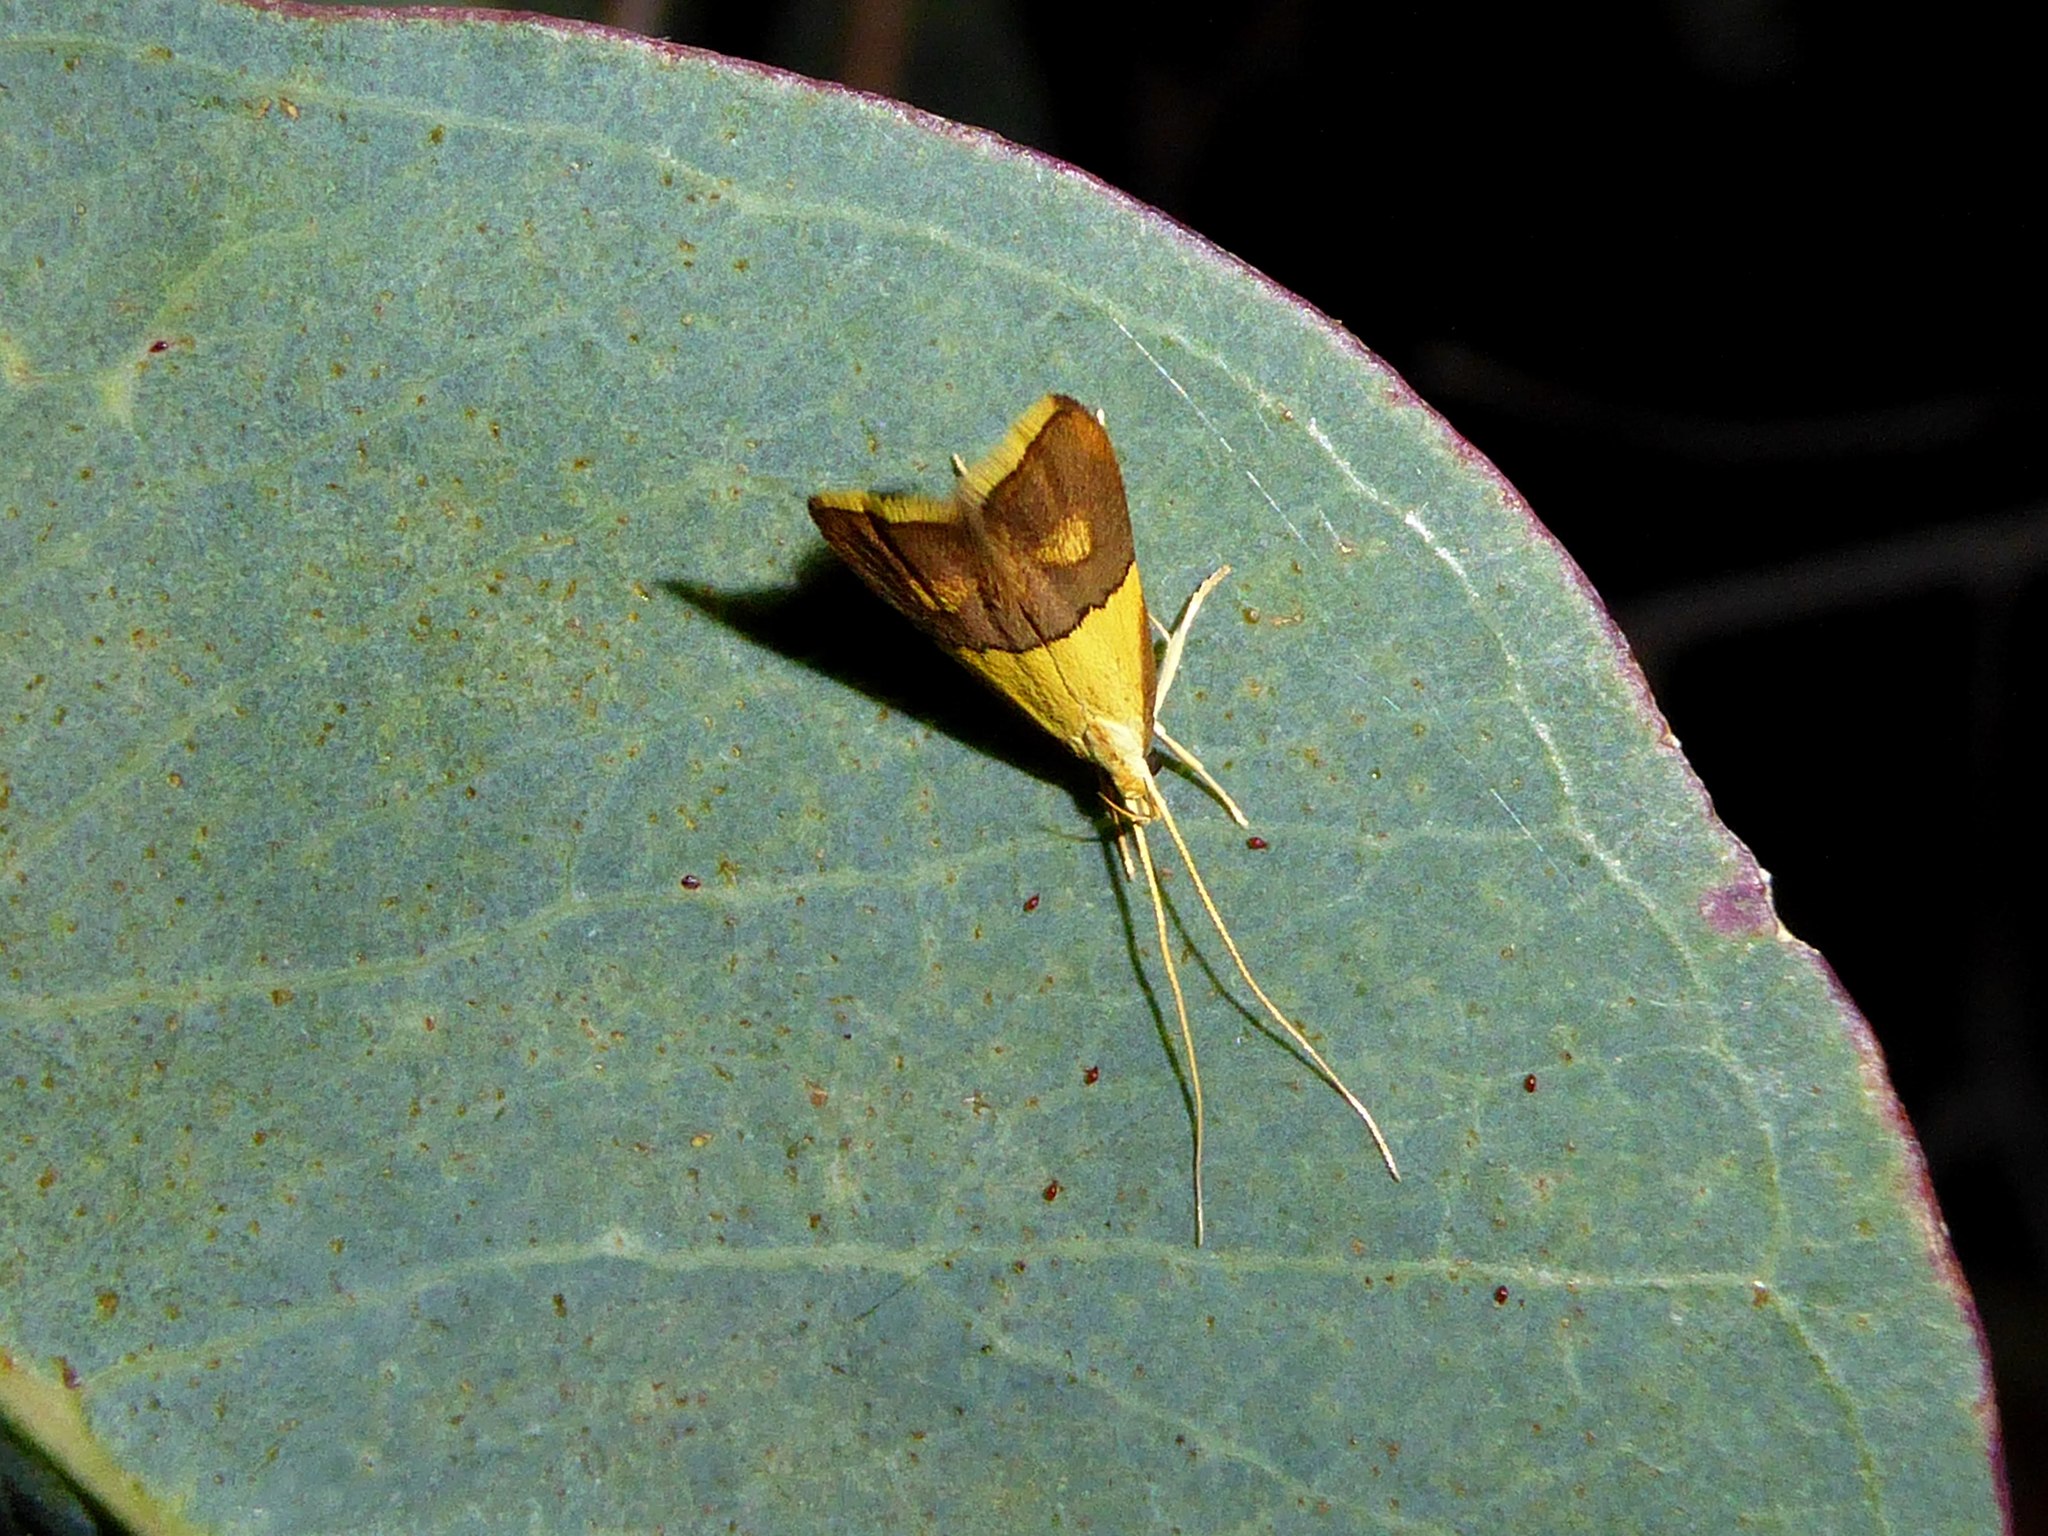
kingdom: Animalia
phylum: Arthropoda
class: Insecta
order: Lepidoptera
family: Lecithoceridae
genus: Crocanthes
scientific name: Crocanthes prasinopis
